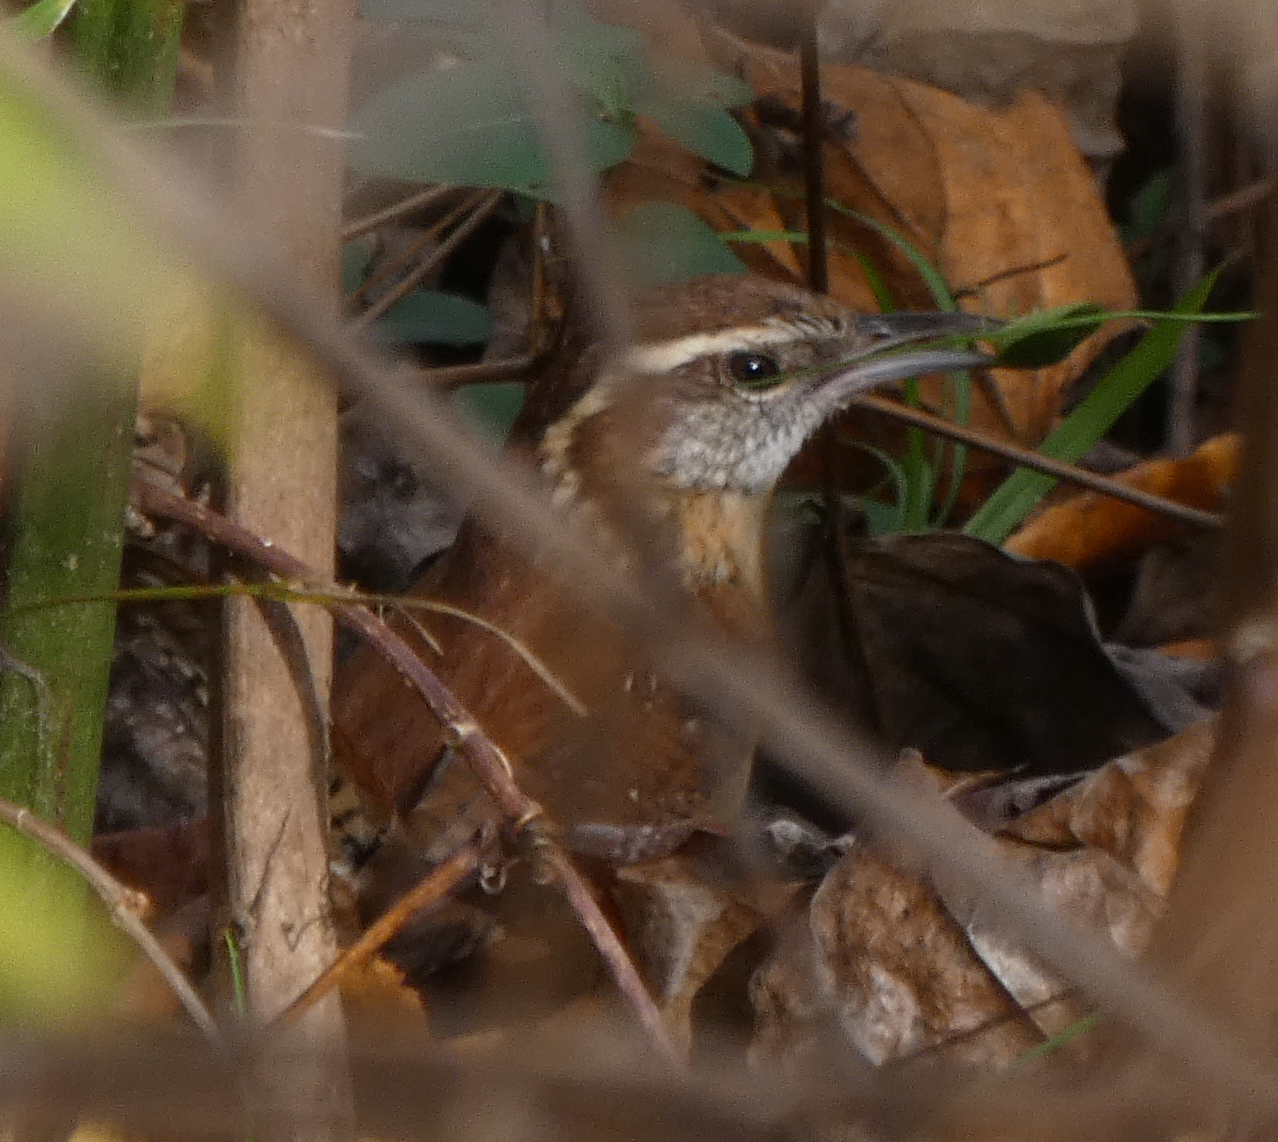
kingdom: Animalia
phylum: Chordata
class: Aves
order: Passeriformes
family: Troglodytidae
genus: Thryothorus
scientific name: Thryothorus ludovicianus
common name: Carolina wren
